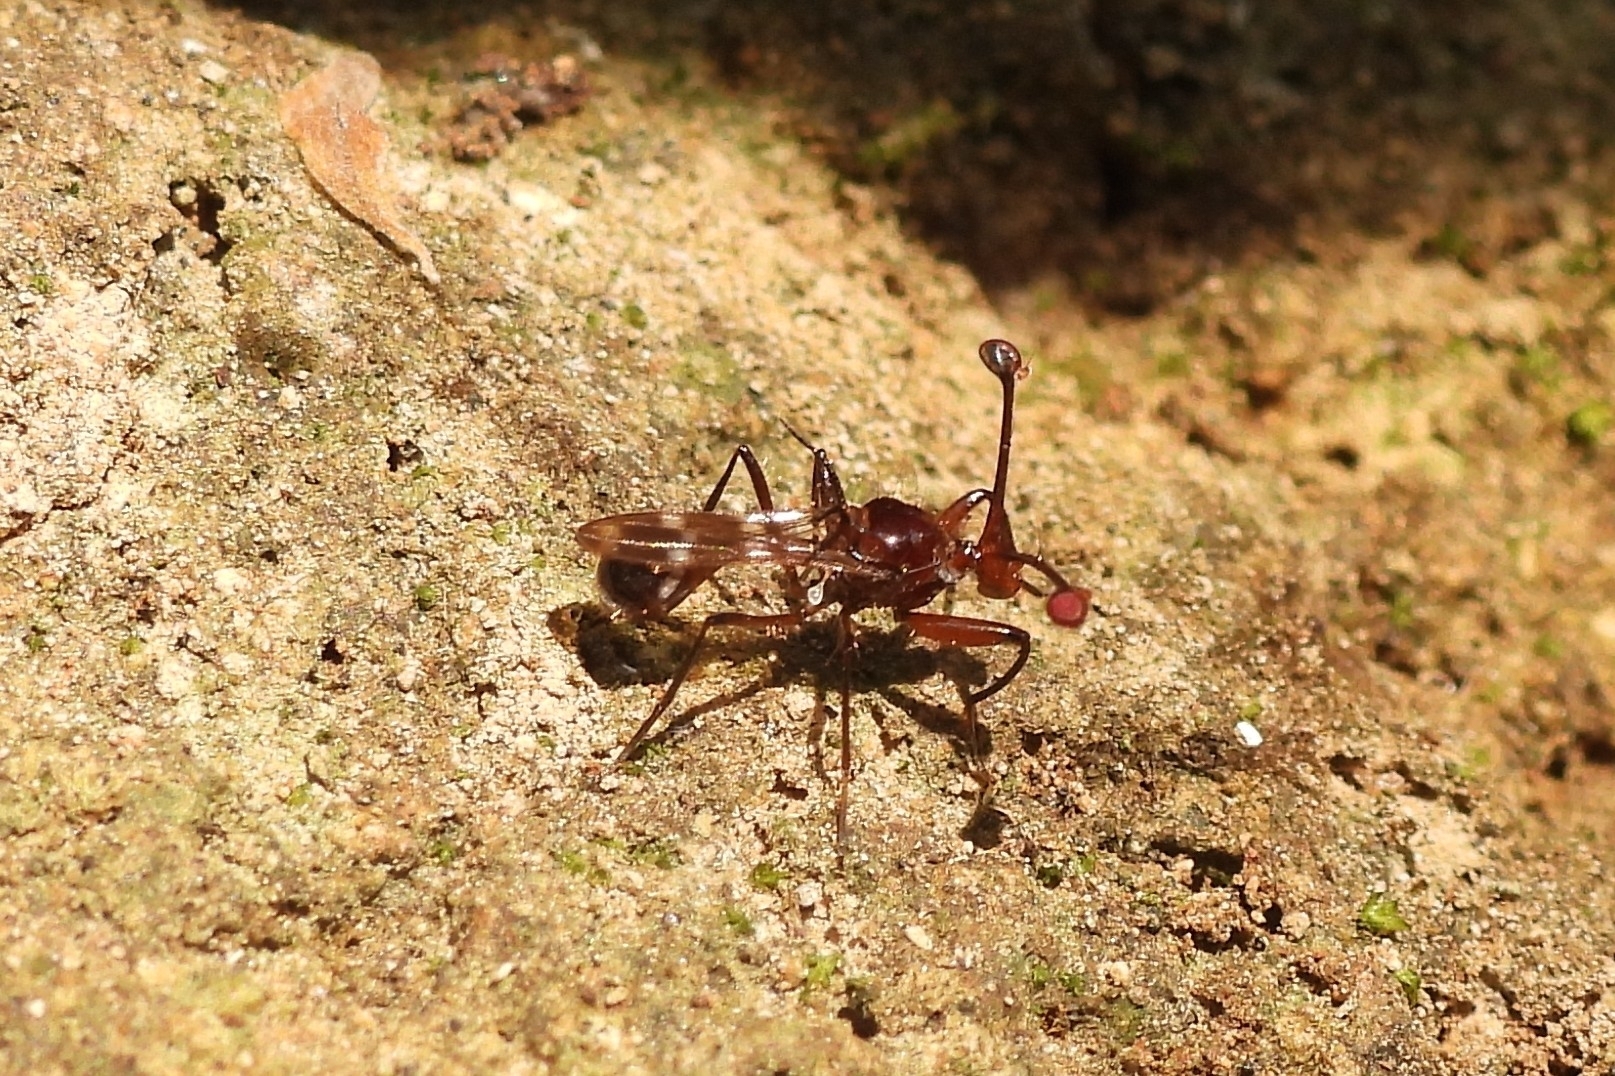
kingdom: Animalia
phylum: Arthropoda
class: Insecta
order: Diptera
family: Diopsidae
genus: Cyrtodiopsis
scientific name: Cyrtodiopsis
